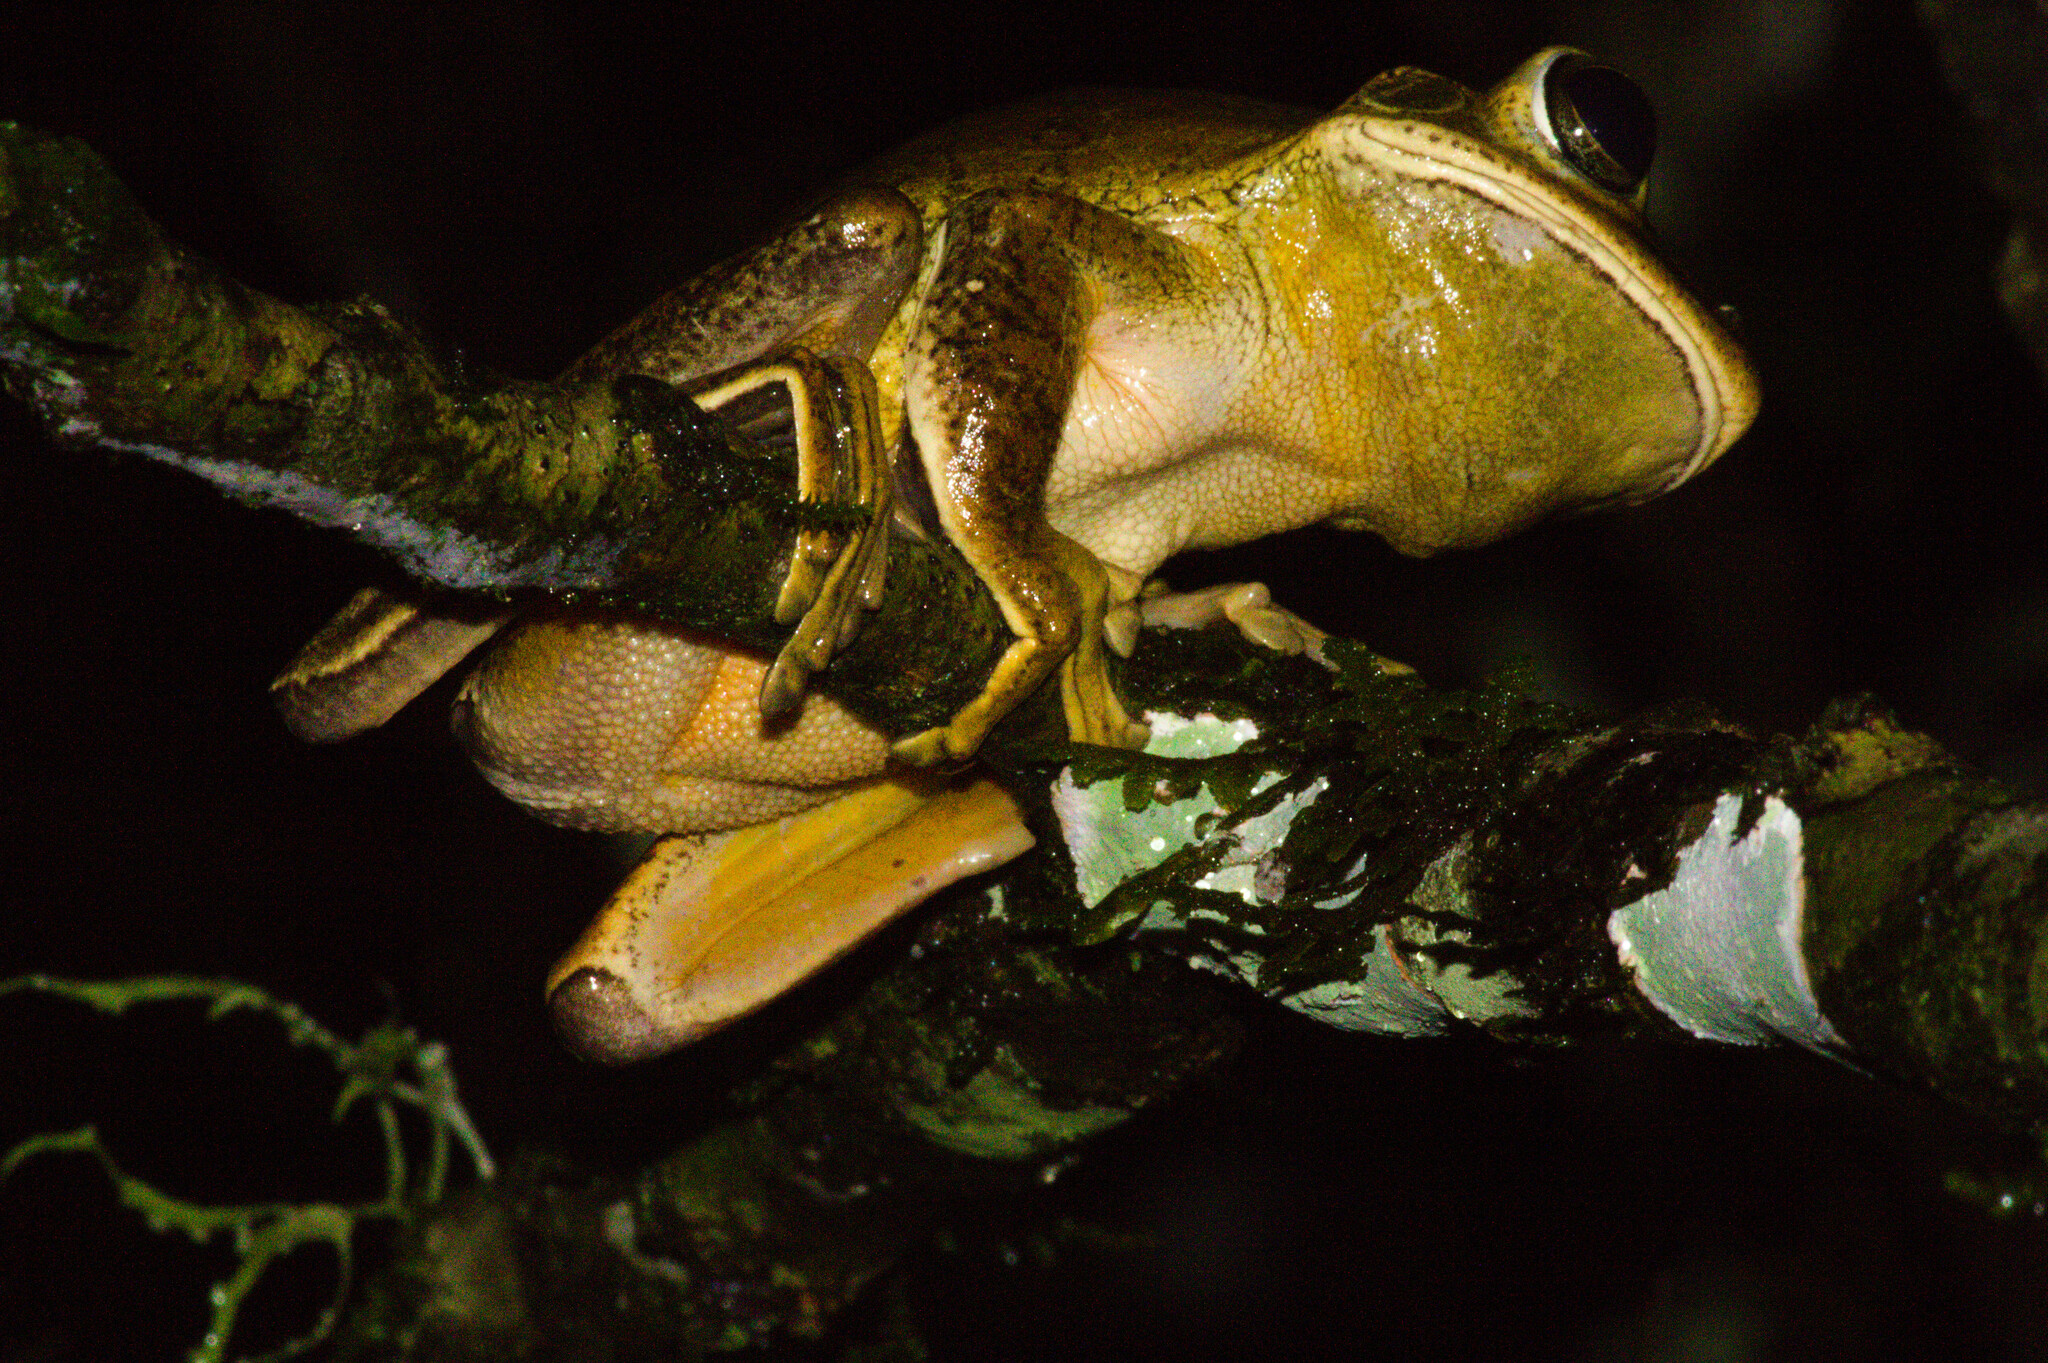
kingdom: Animalia
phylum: Chordata
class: Amphibia
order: Anura
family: Hylidae
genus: Boana
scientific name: Boana faber
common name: Blacksmith tree frog
